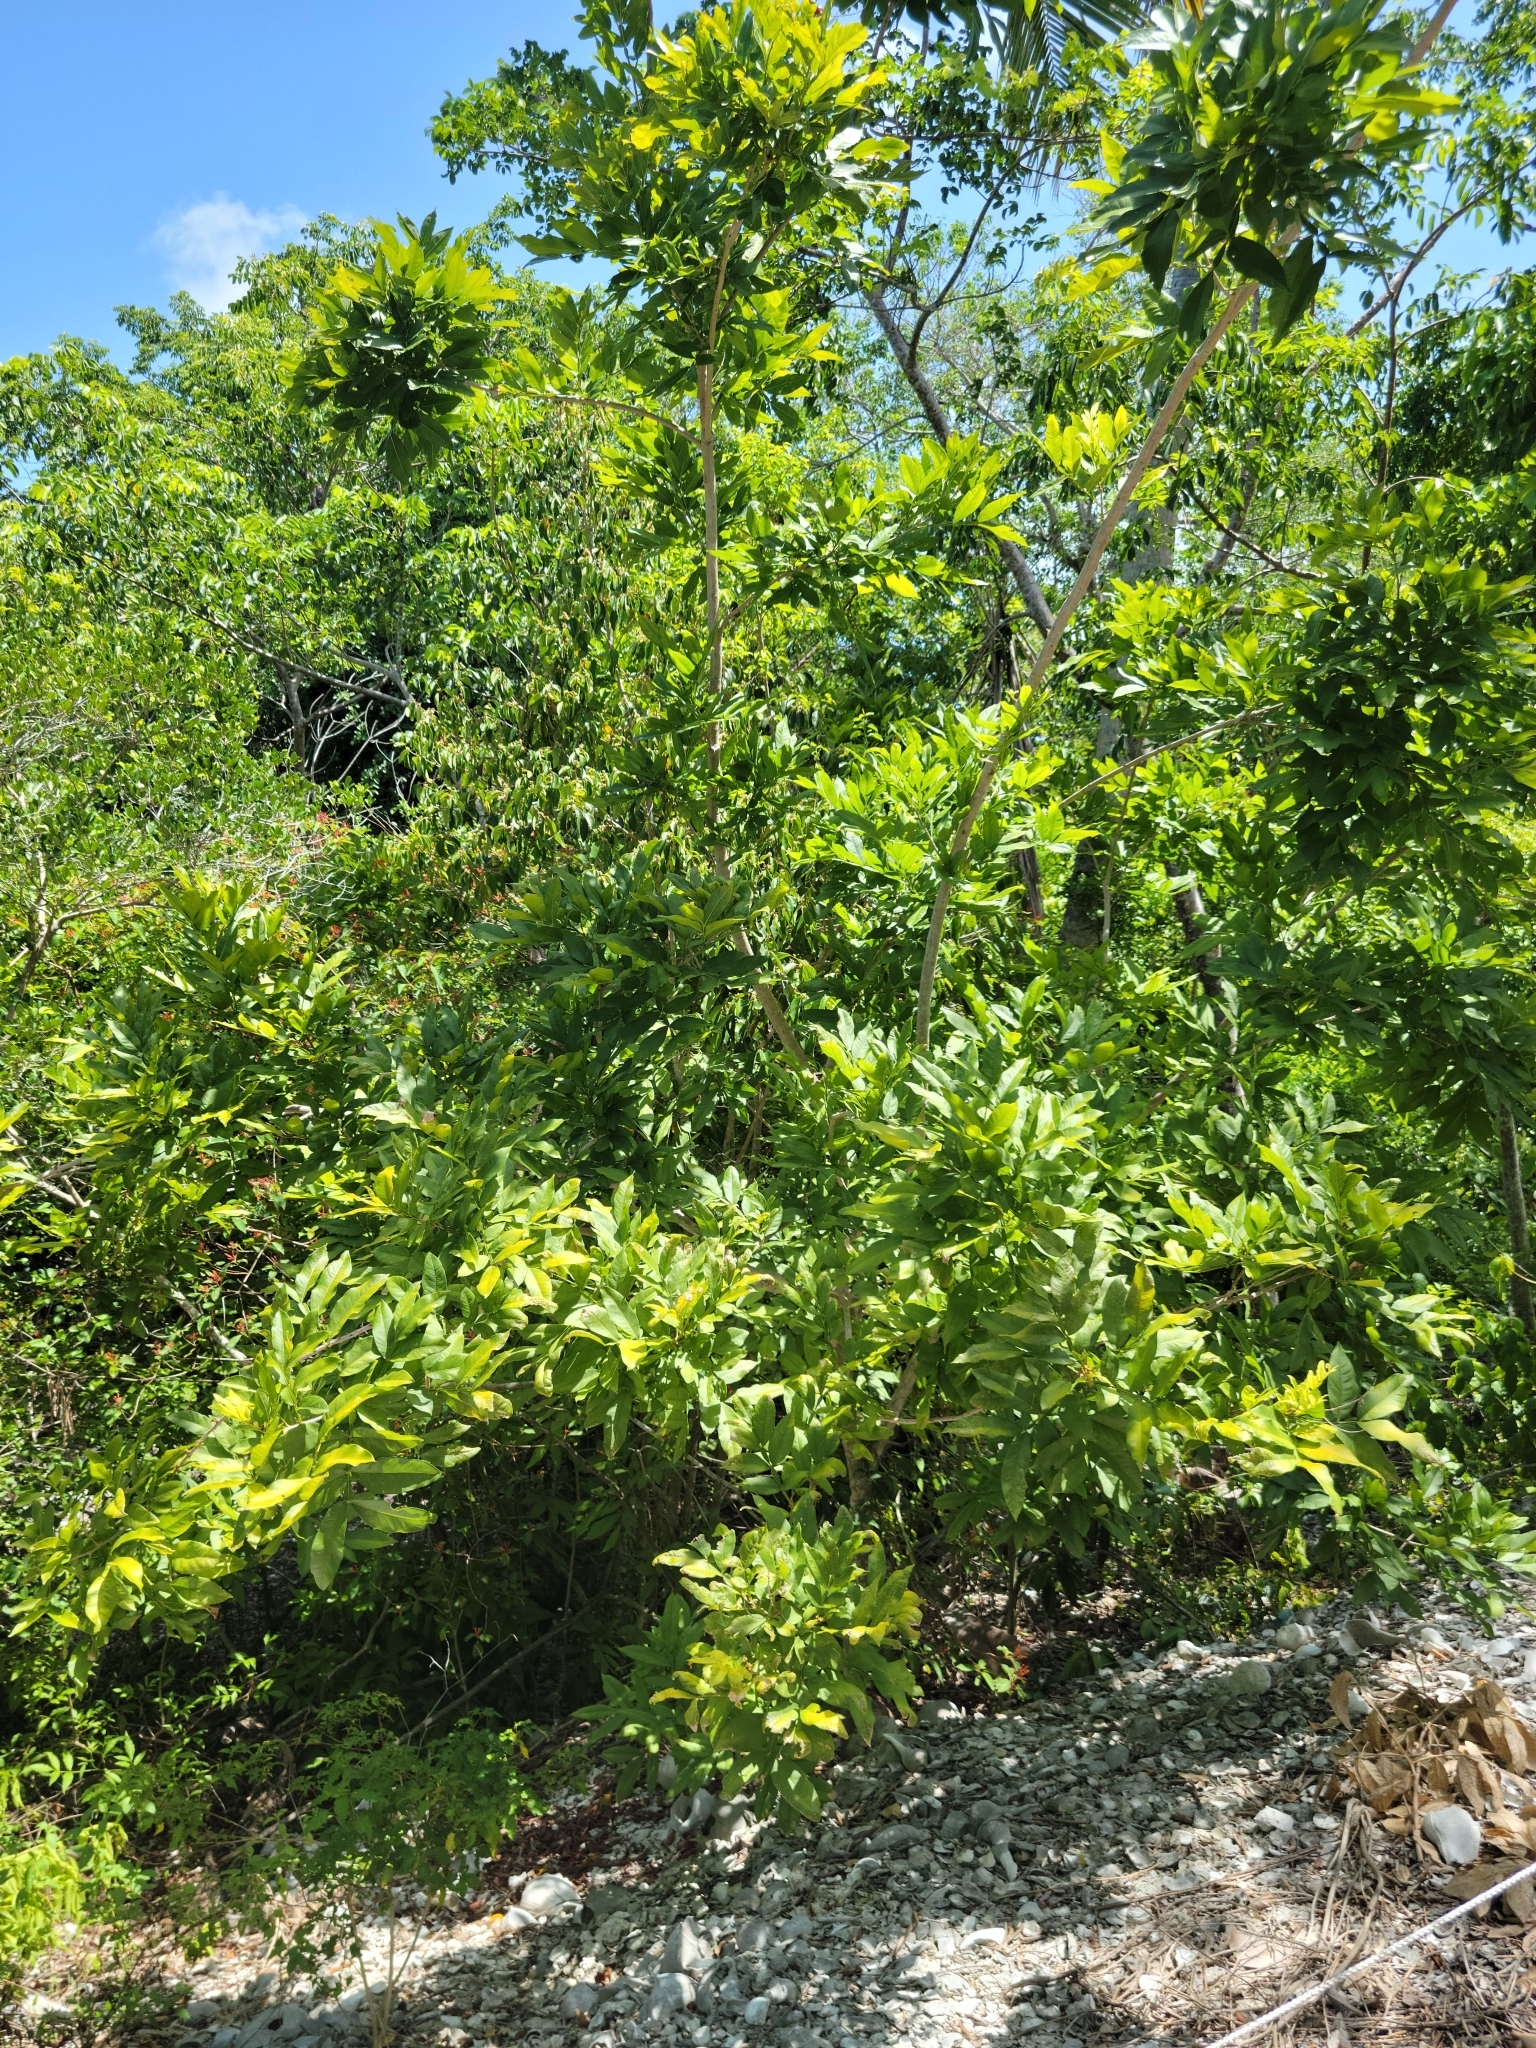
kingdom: Plantae
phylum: Tracheophyta
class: Magnoliopsida
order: Sapindales
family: Sapindaceae
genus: Sapindus
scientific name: Sapindus saponaria
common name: Wingleaf soapberry
